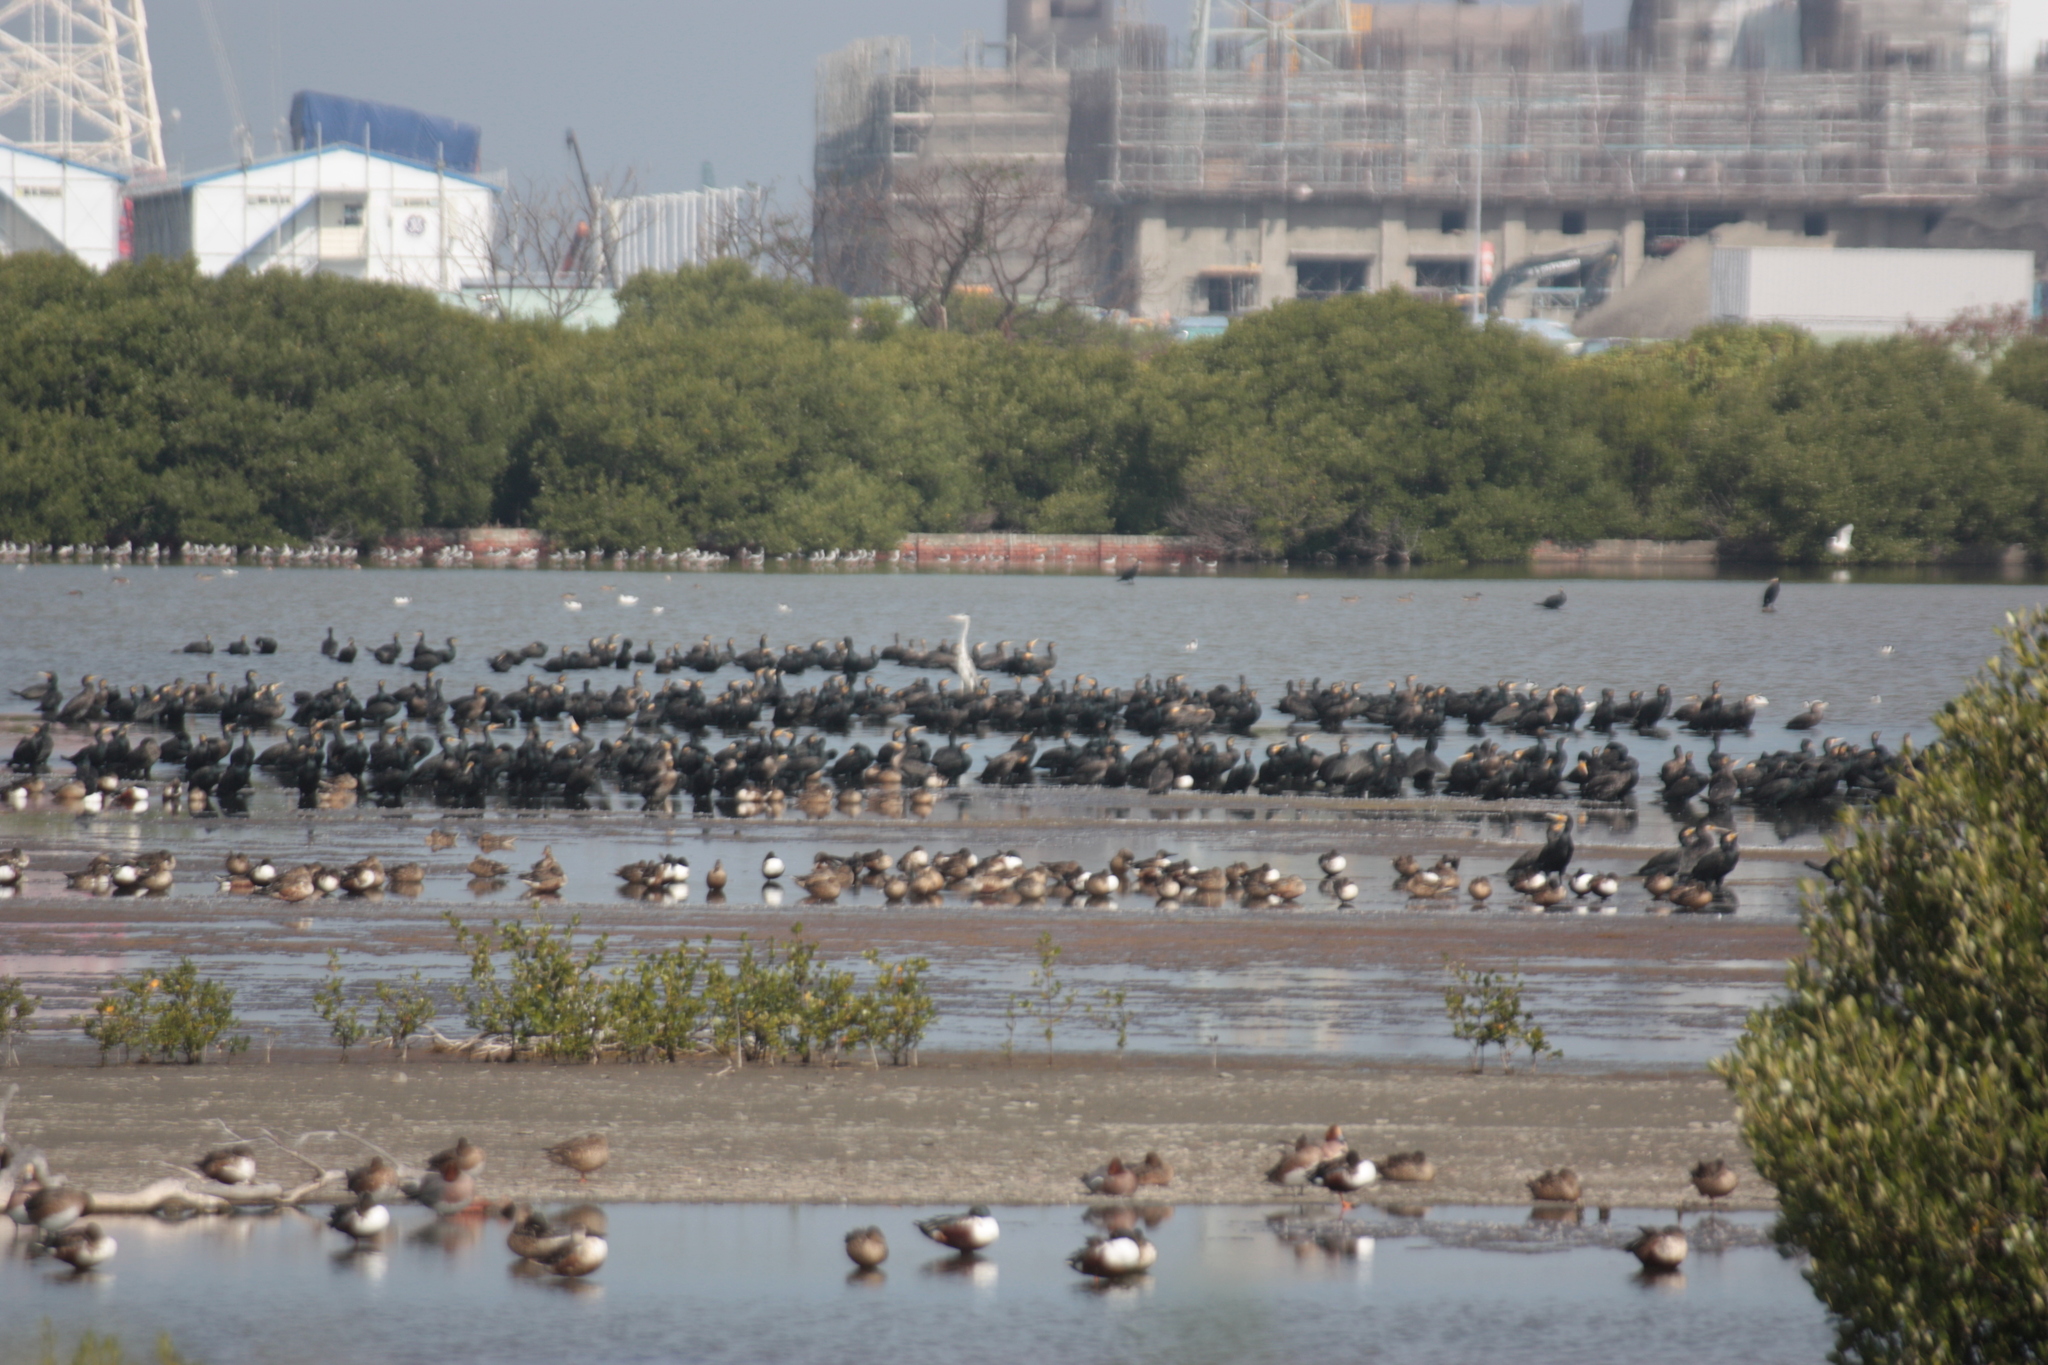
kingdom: Animalia
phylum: Chordata
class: Aves
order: Suliformes
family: Phalacrocoracidae
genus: Phalacrocorax
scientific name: Phalacrocorax carbo
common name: Great cormorant
